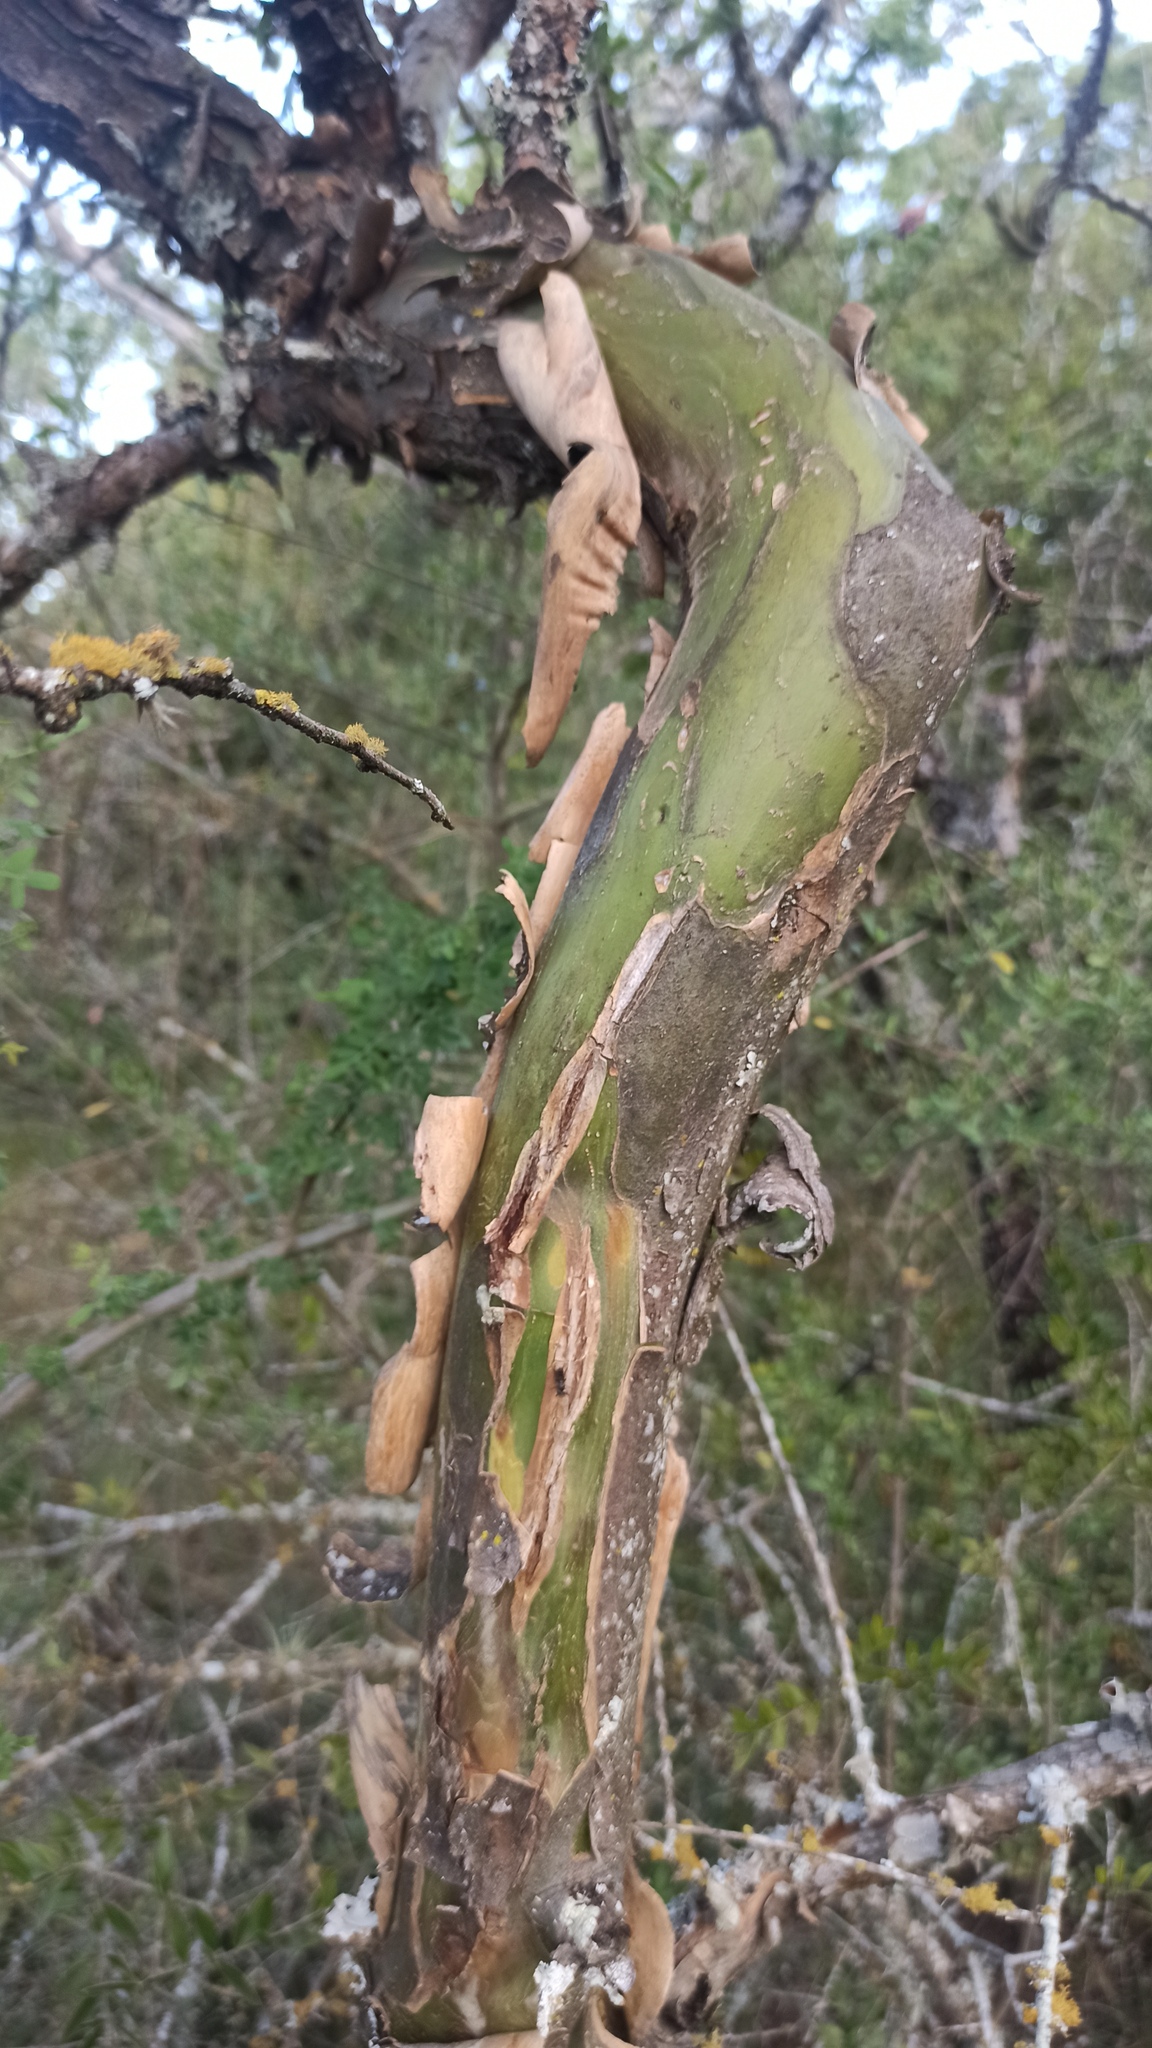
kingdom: Plantae
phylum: Tracheophyta
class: Magnoliopsida
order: Fabales
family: Fabaceae
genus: Geoffroea
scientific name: Geoffroea decorticans
